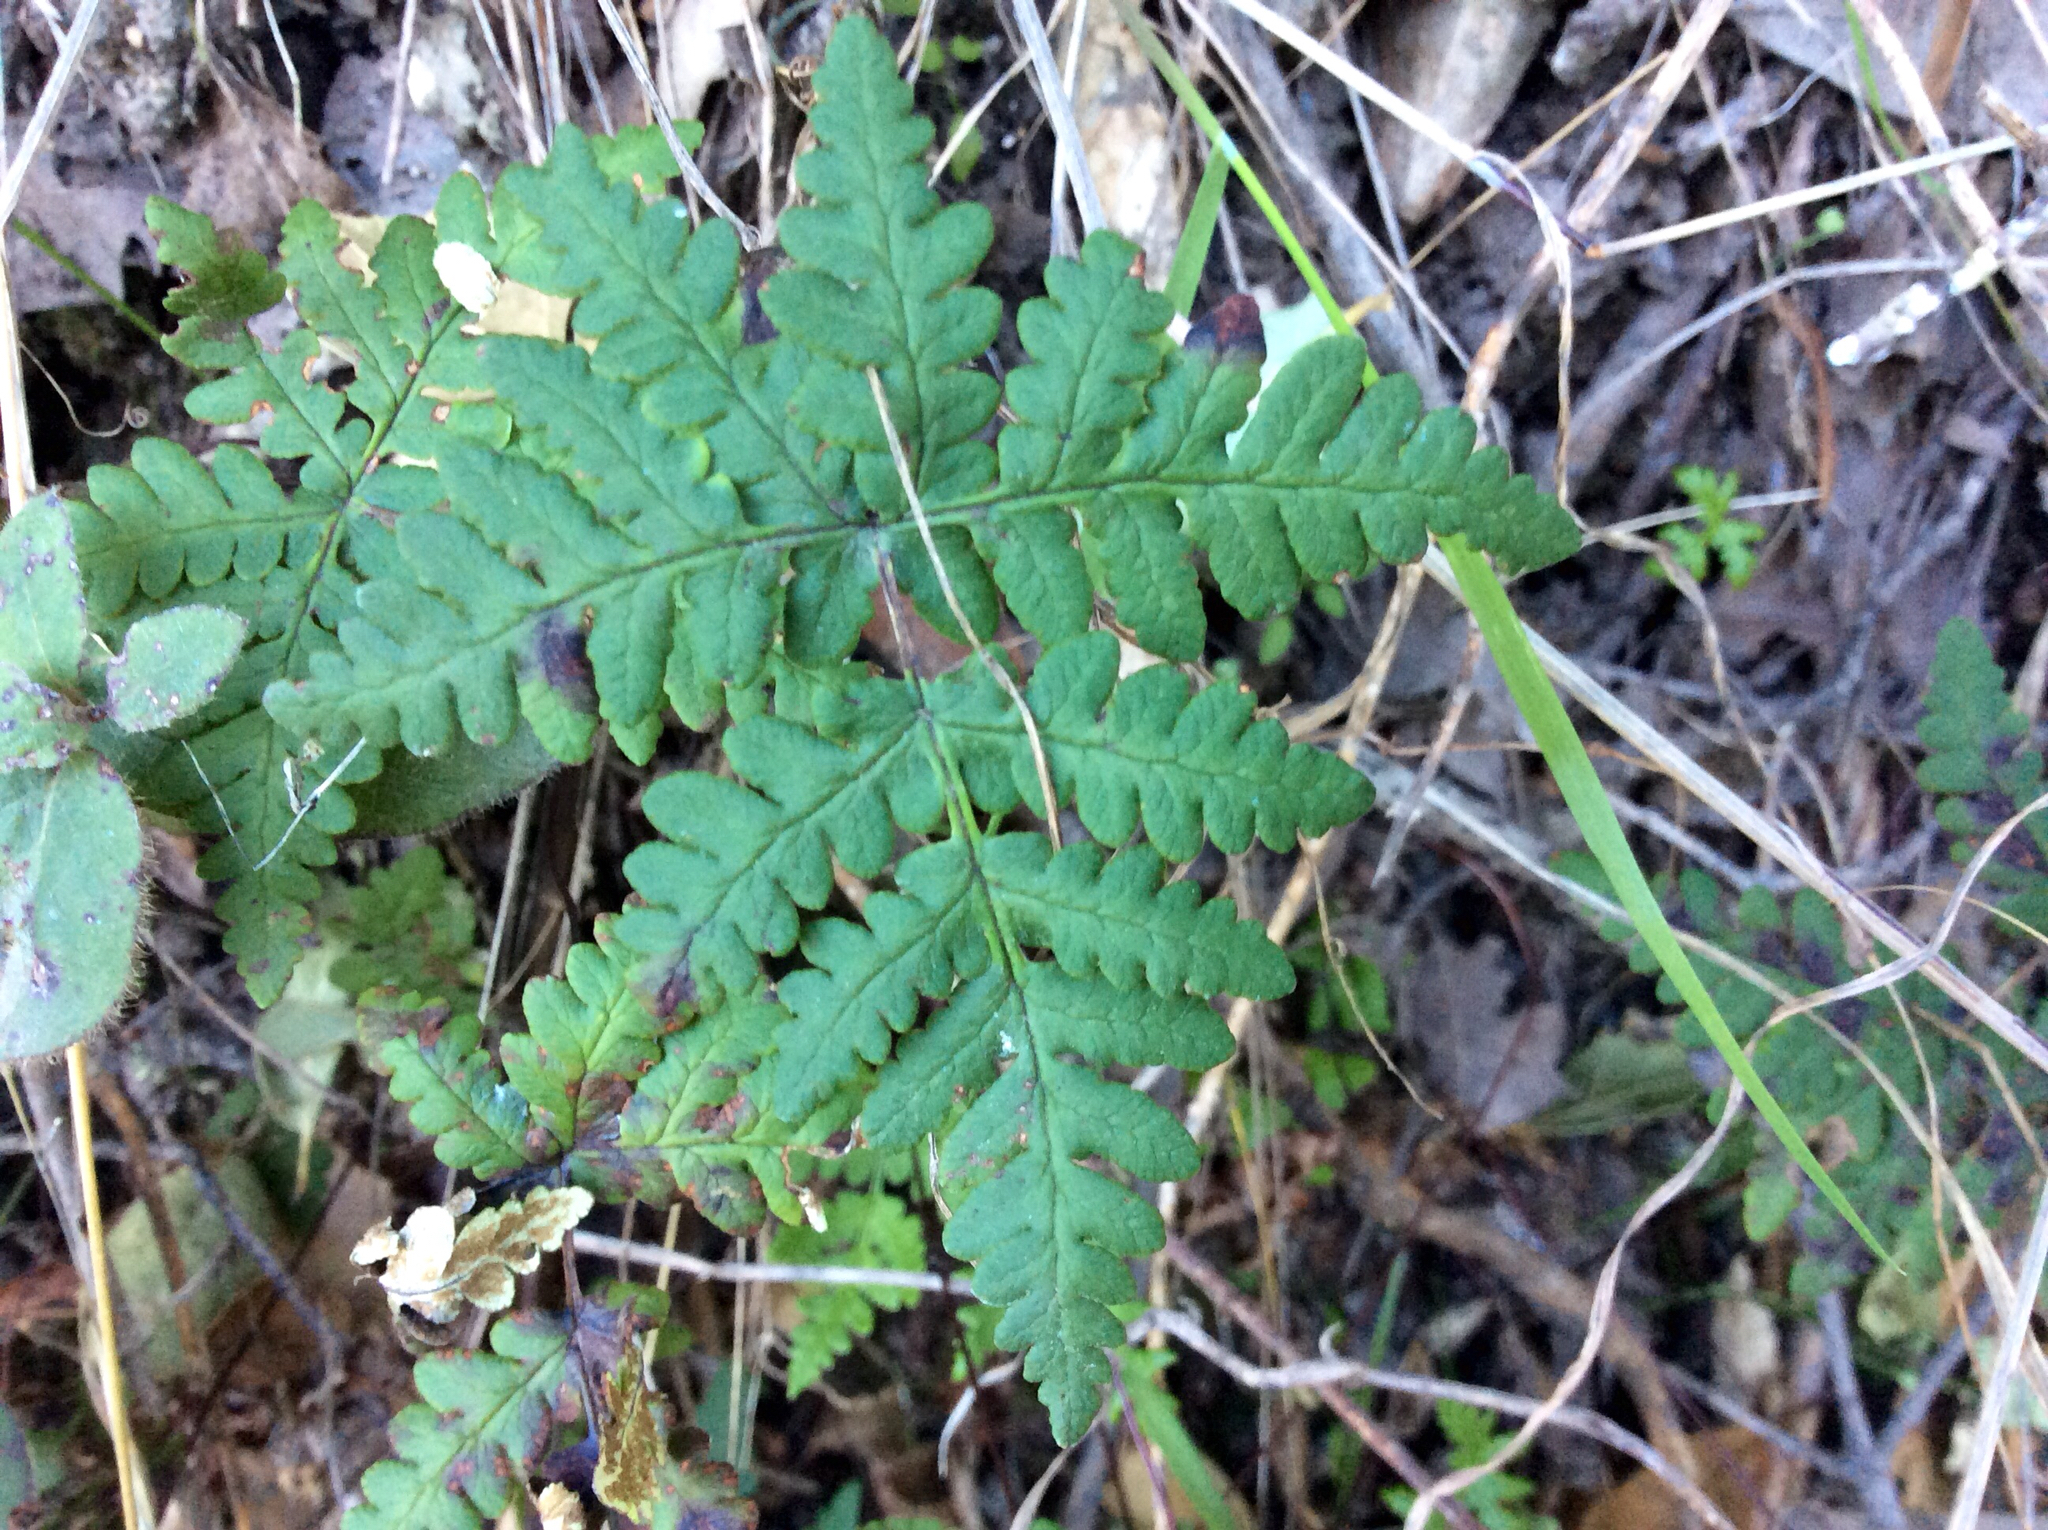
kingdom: Plantae
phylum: Tracheophyta
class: Polypodiopsida
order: Polypodiales
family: Pteridaceae
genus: Pentagramma
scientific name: Pentagramma triangularis
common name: Gold fern
